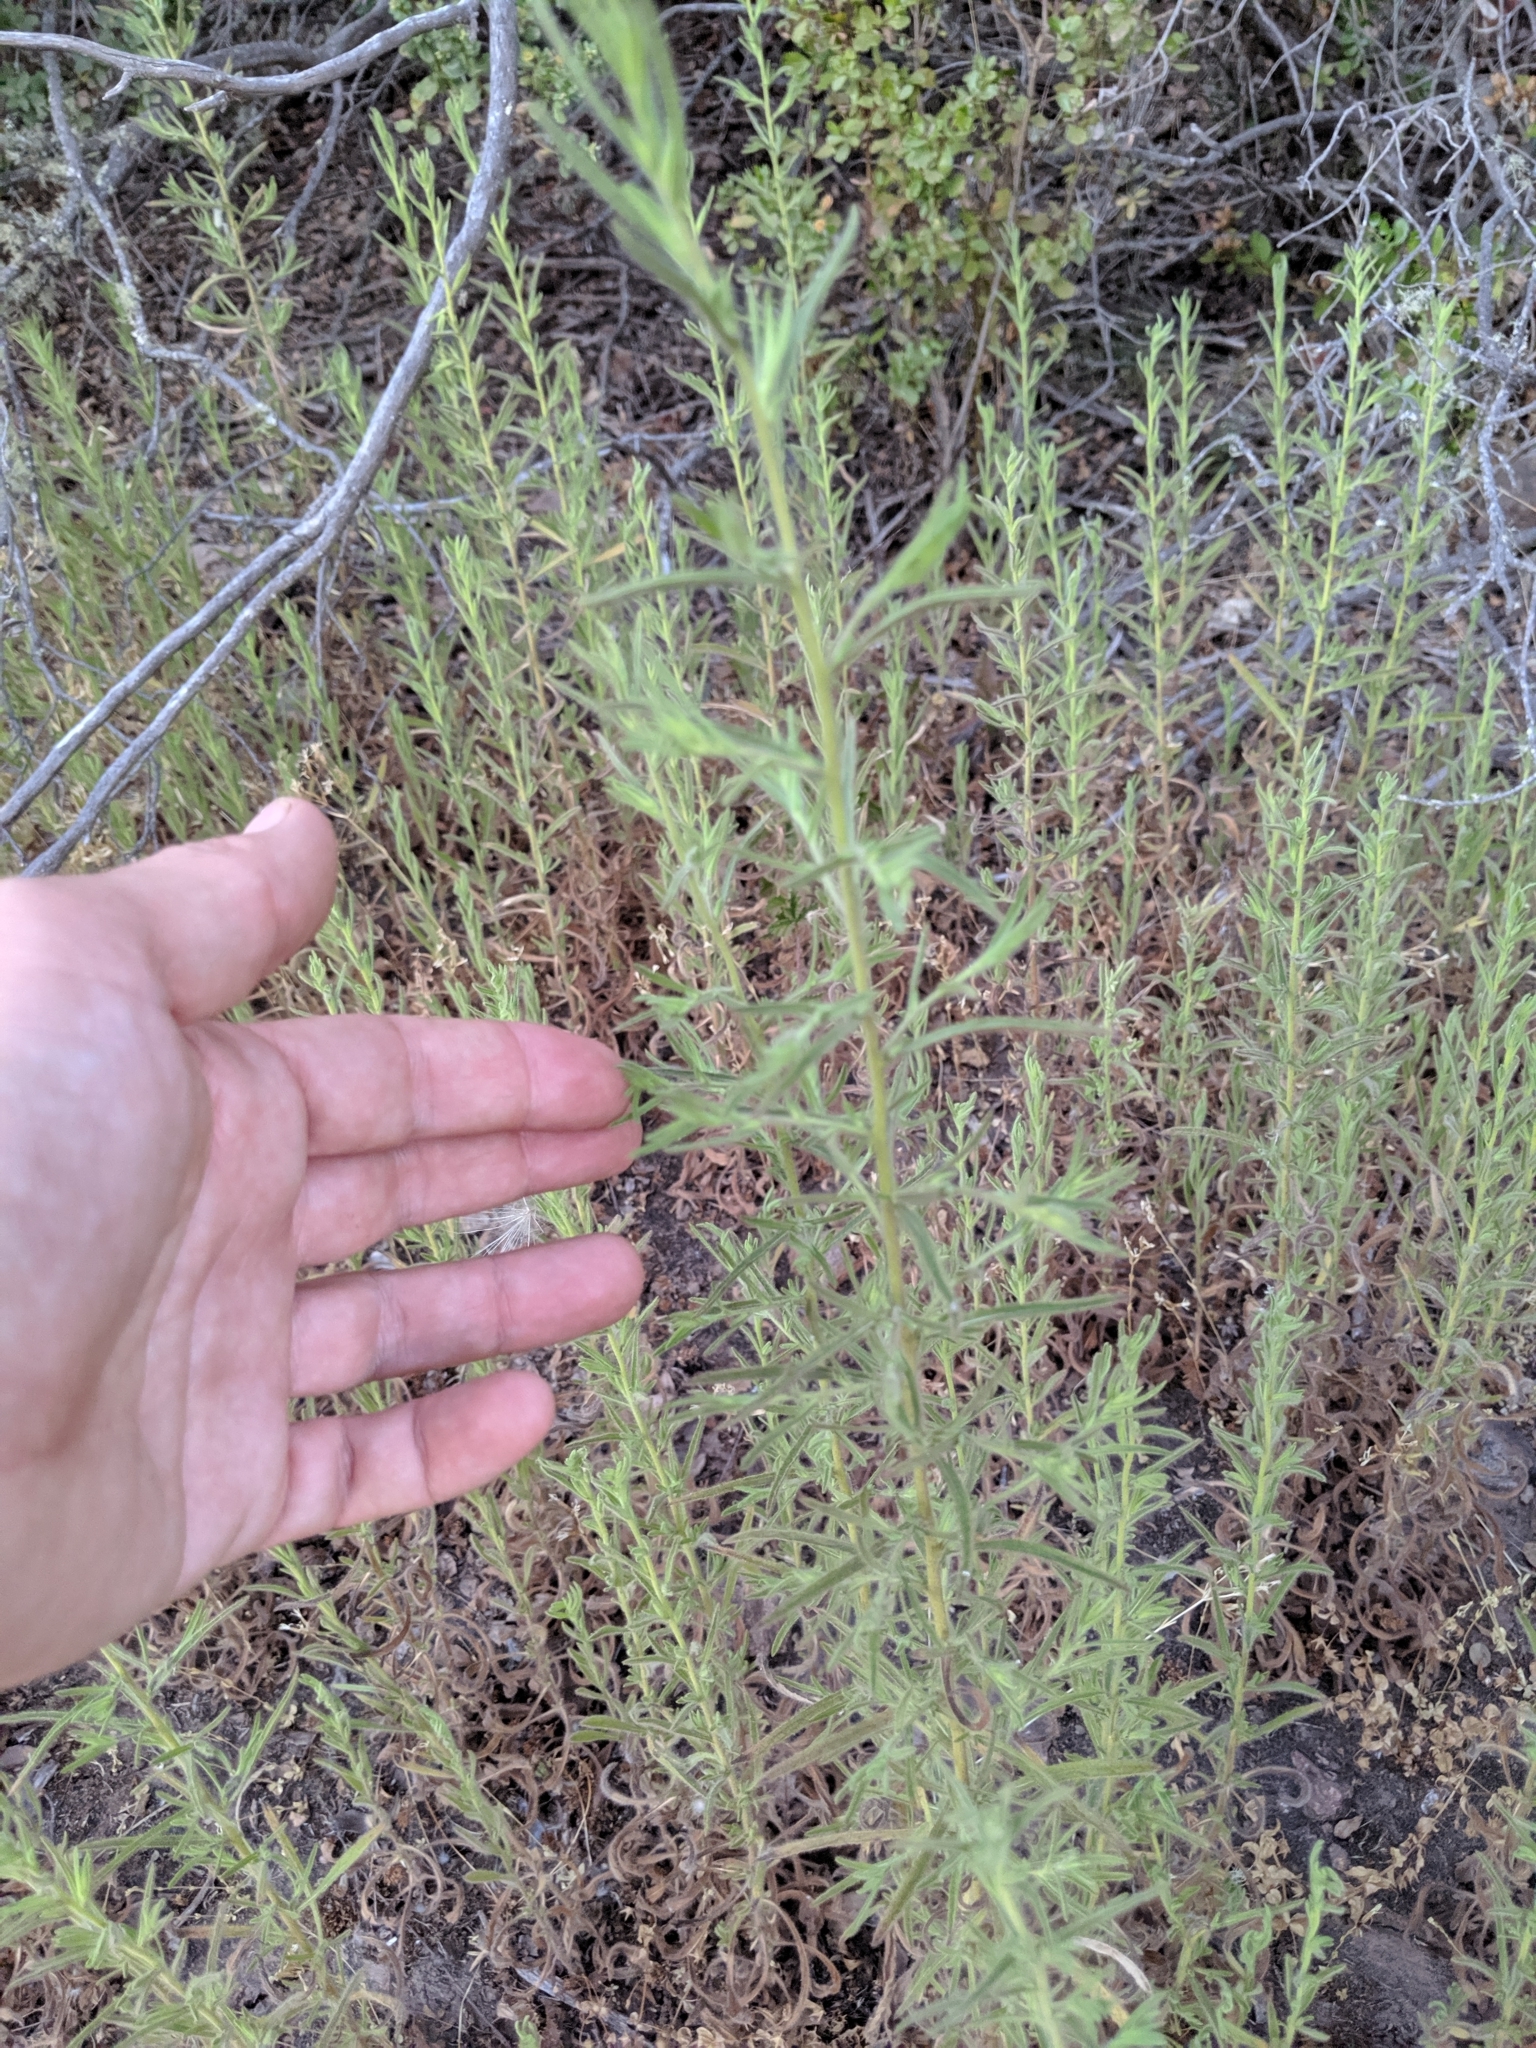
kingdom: Plantae
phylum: Tracheophyta
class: Magnoliopsida
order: Asterales
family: Asteraceae
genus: Dittrichia
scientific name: Dittrichia graveolens
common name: Stinking fleabane
